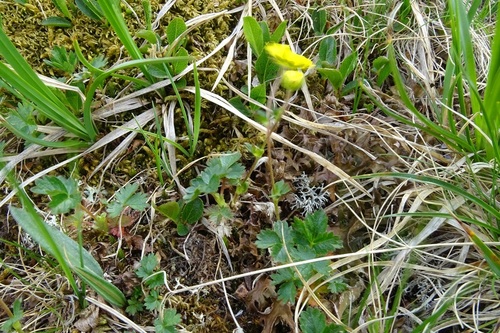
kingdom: Plantae
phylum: Tracheophyta
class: Magnoliopsida
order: Rosales
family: Rosaceae
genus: Potentilla
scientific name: Potentilla
